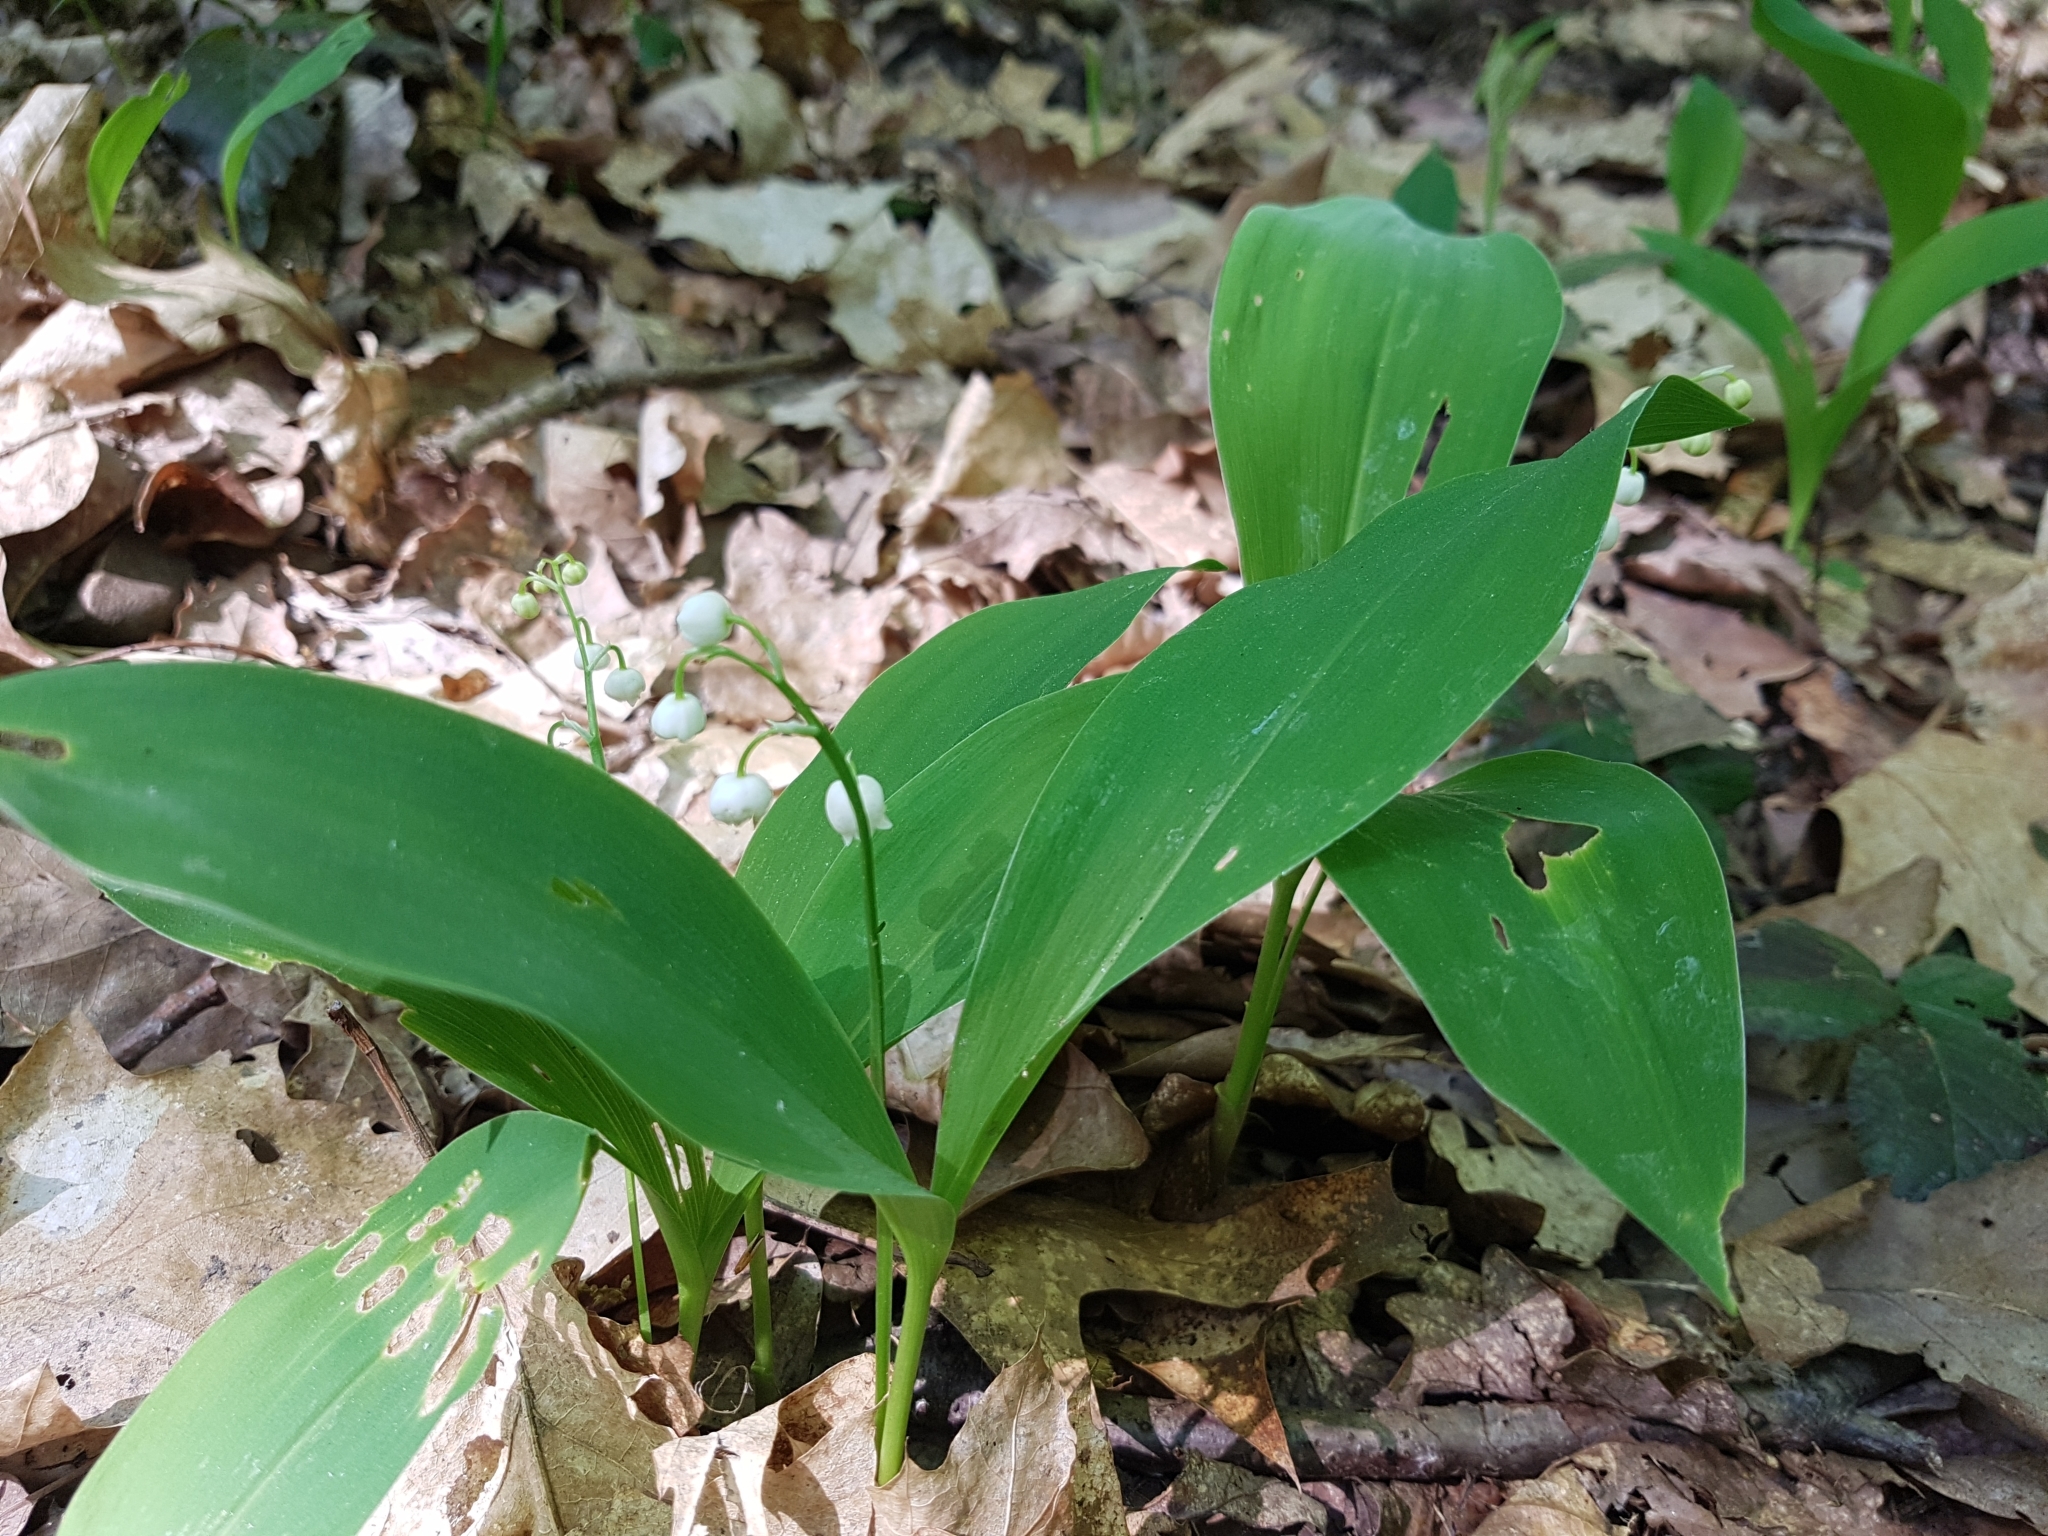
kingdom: Plantae
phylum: Tracheophyta
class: Liliopsida
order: Asparagales
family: Asparagaceae
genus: Convallaria
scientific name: Convallaria majalis
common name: Lily-of-the-valley
